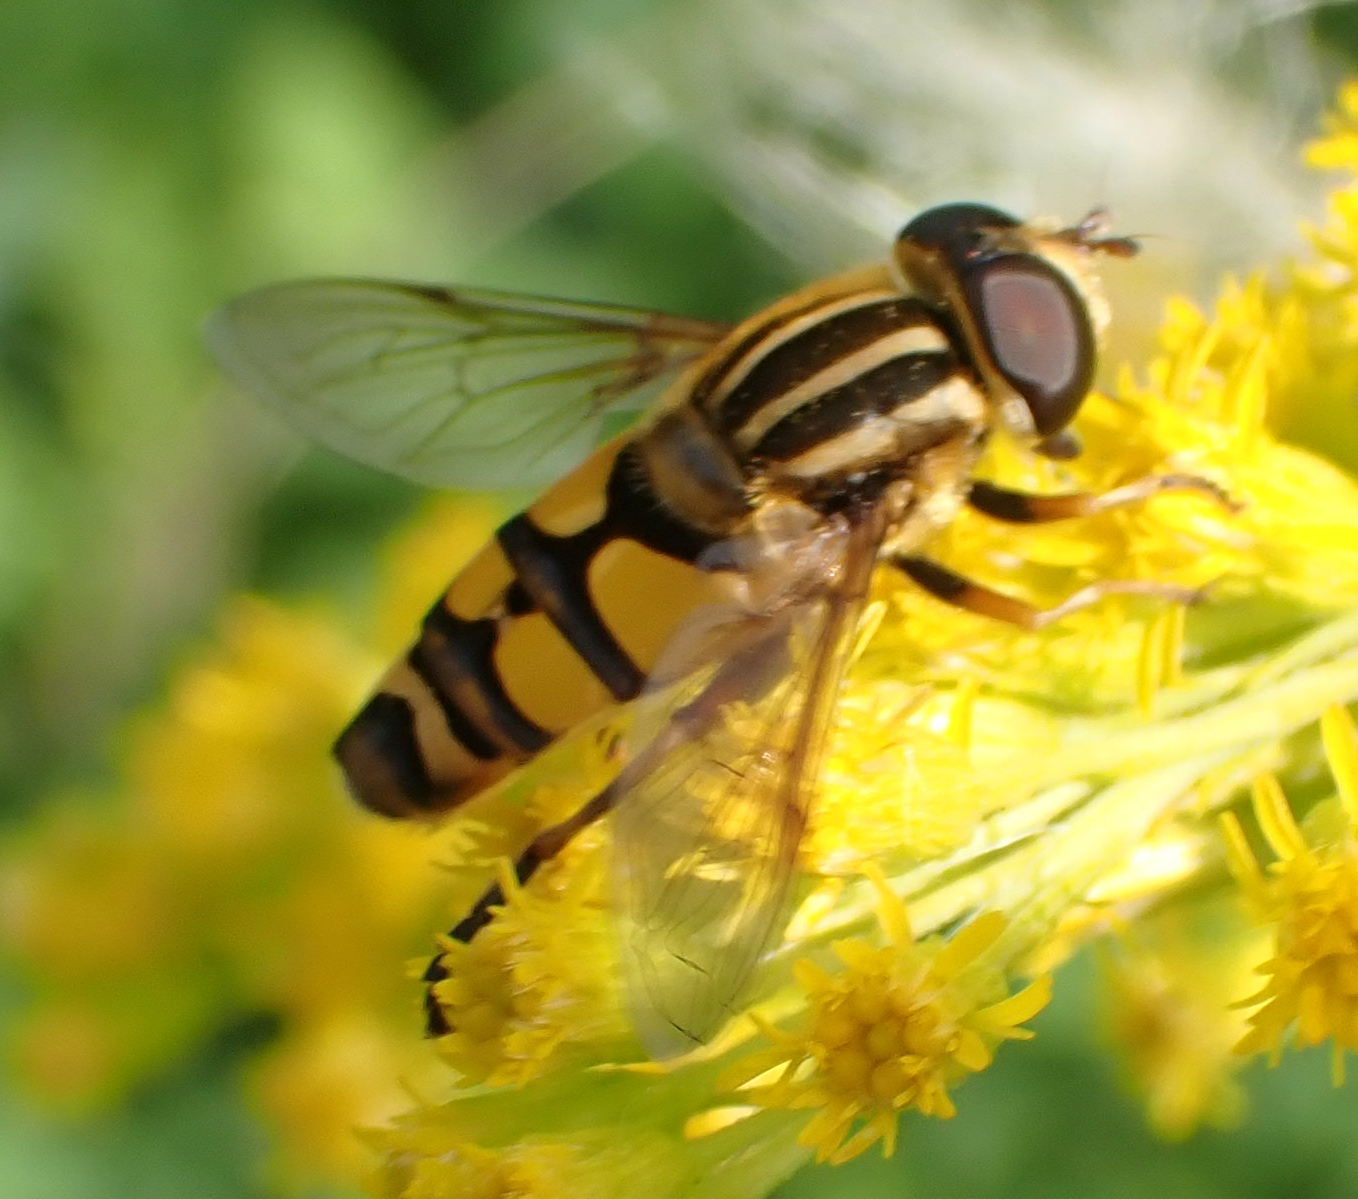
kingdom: Animalia
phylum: Arthropoda
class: Insecta
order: Diptera
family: Syrphidae
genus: Helophilus
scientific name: Helophilus fasciatus
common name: Narrow-headed marsh fly
